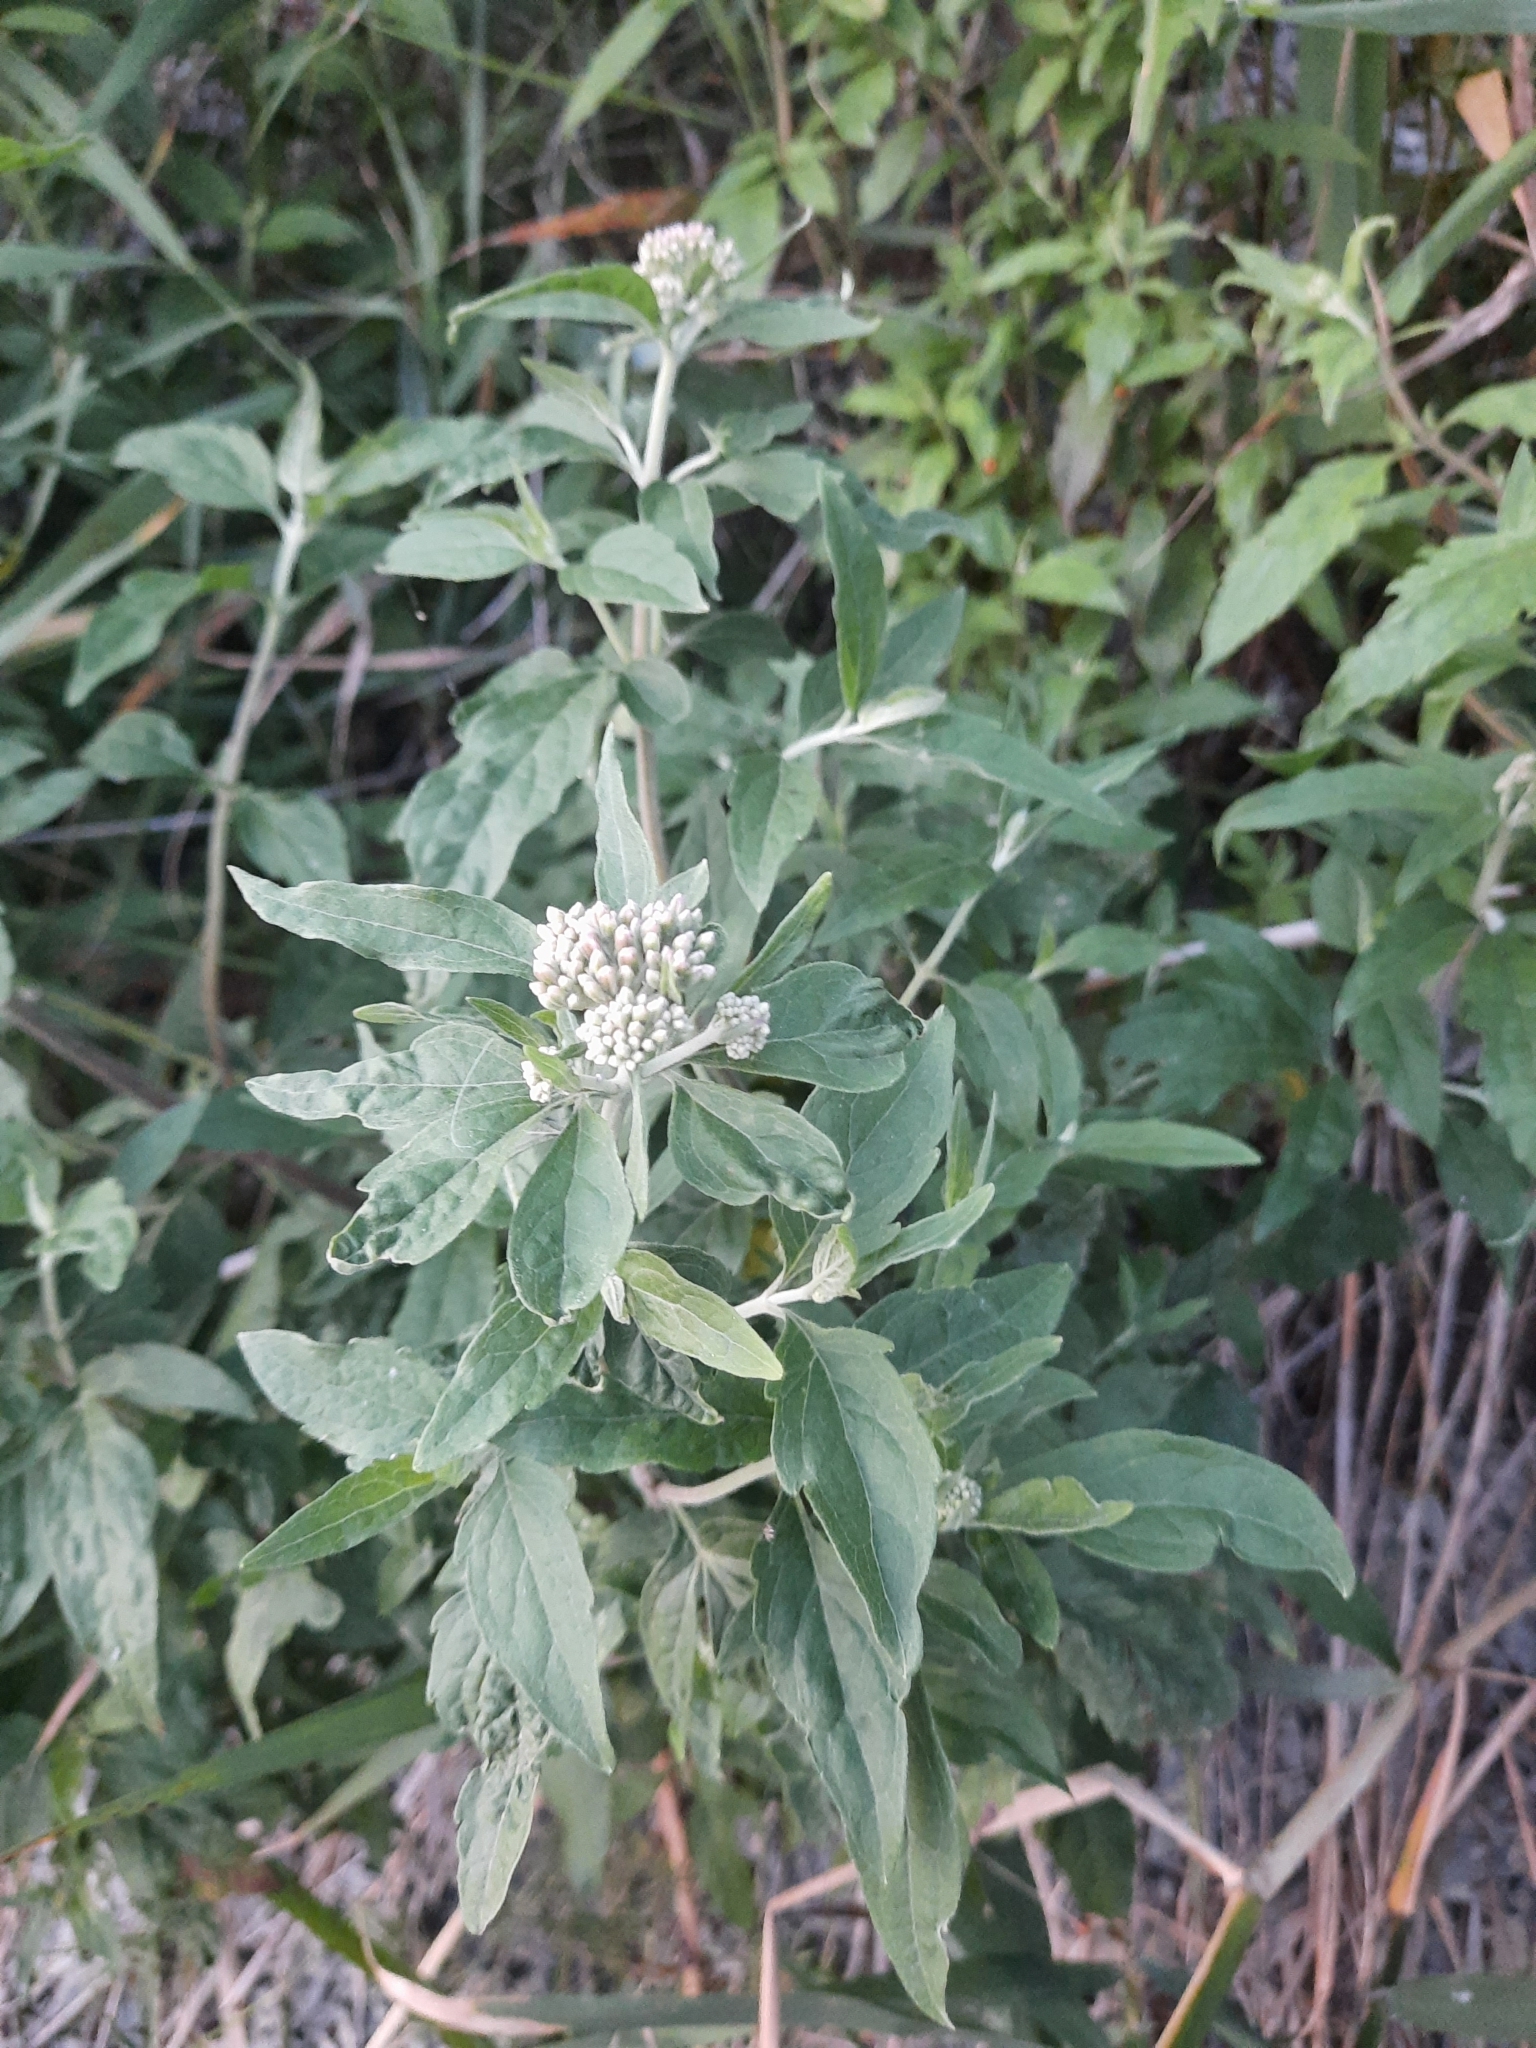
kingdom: Plantae
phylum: Tracheophyta
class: Magnoliopsida
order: Asterales
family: Asteraceae
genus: Eupatorium
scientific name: Eupatorium cannabinum
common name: Hemp-agrimony
